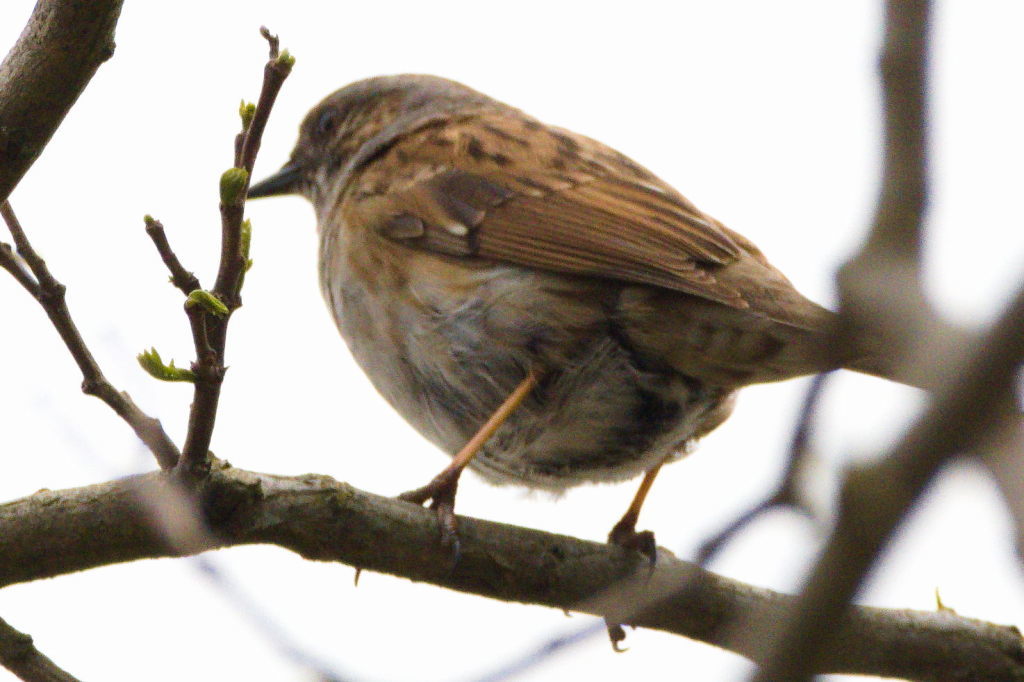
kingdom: Animalia
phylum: Chordata
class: Aves
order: Passeriformes
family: Prunellidae
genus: Prunella
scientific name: Prunella modularis
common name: Dunnock
